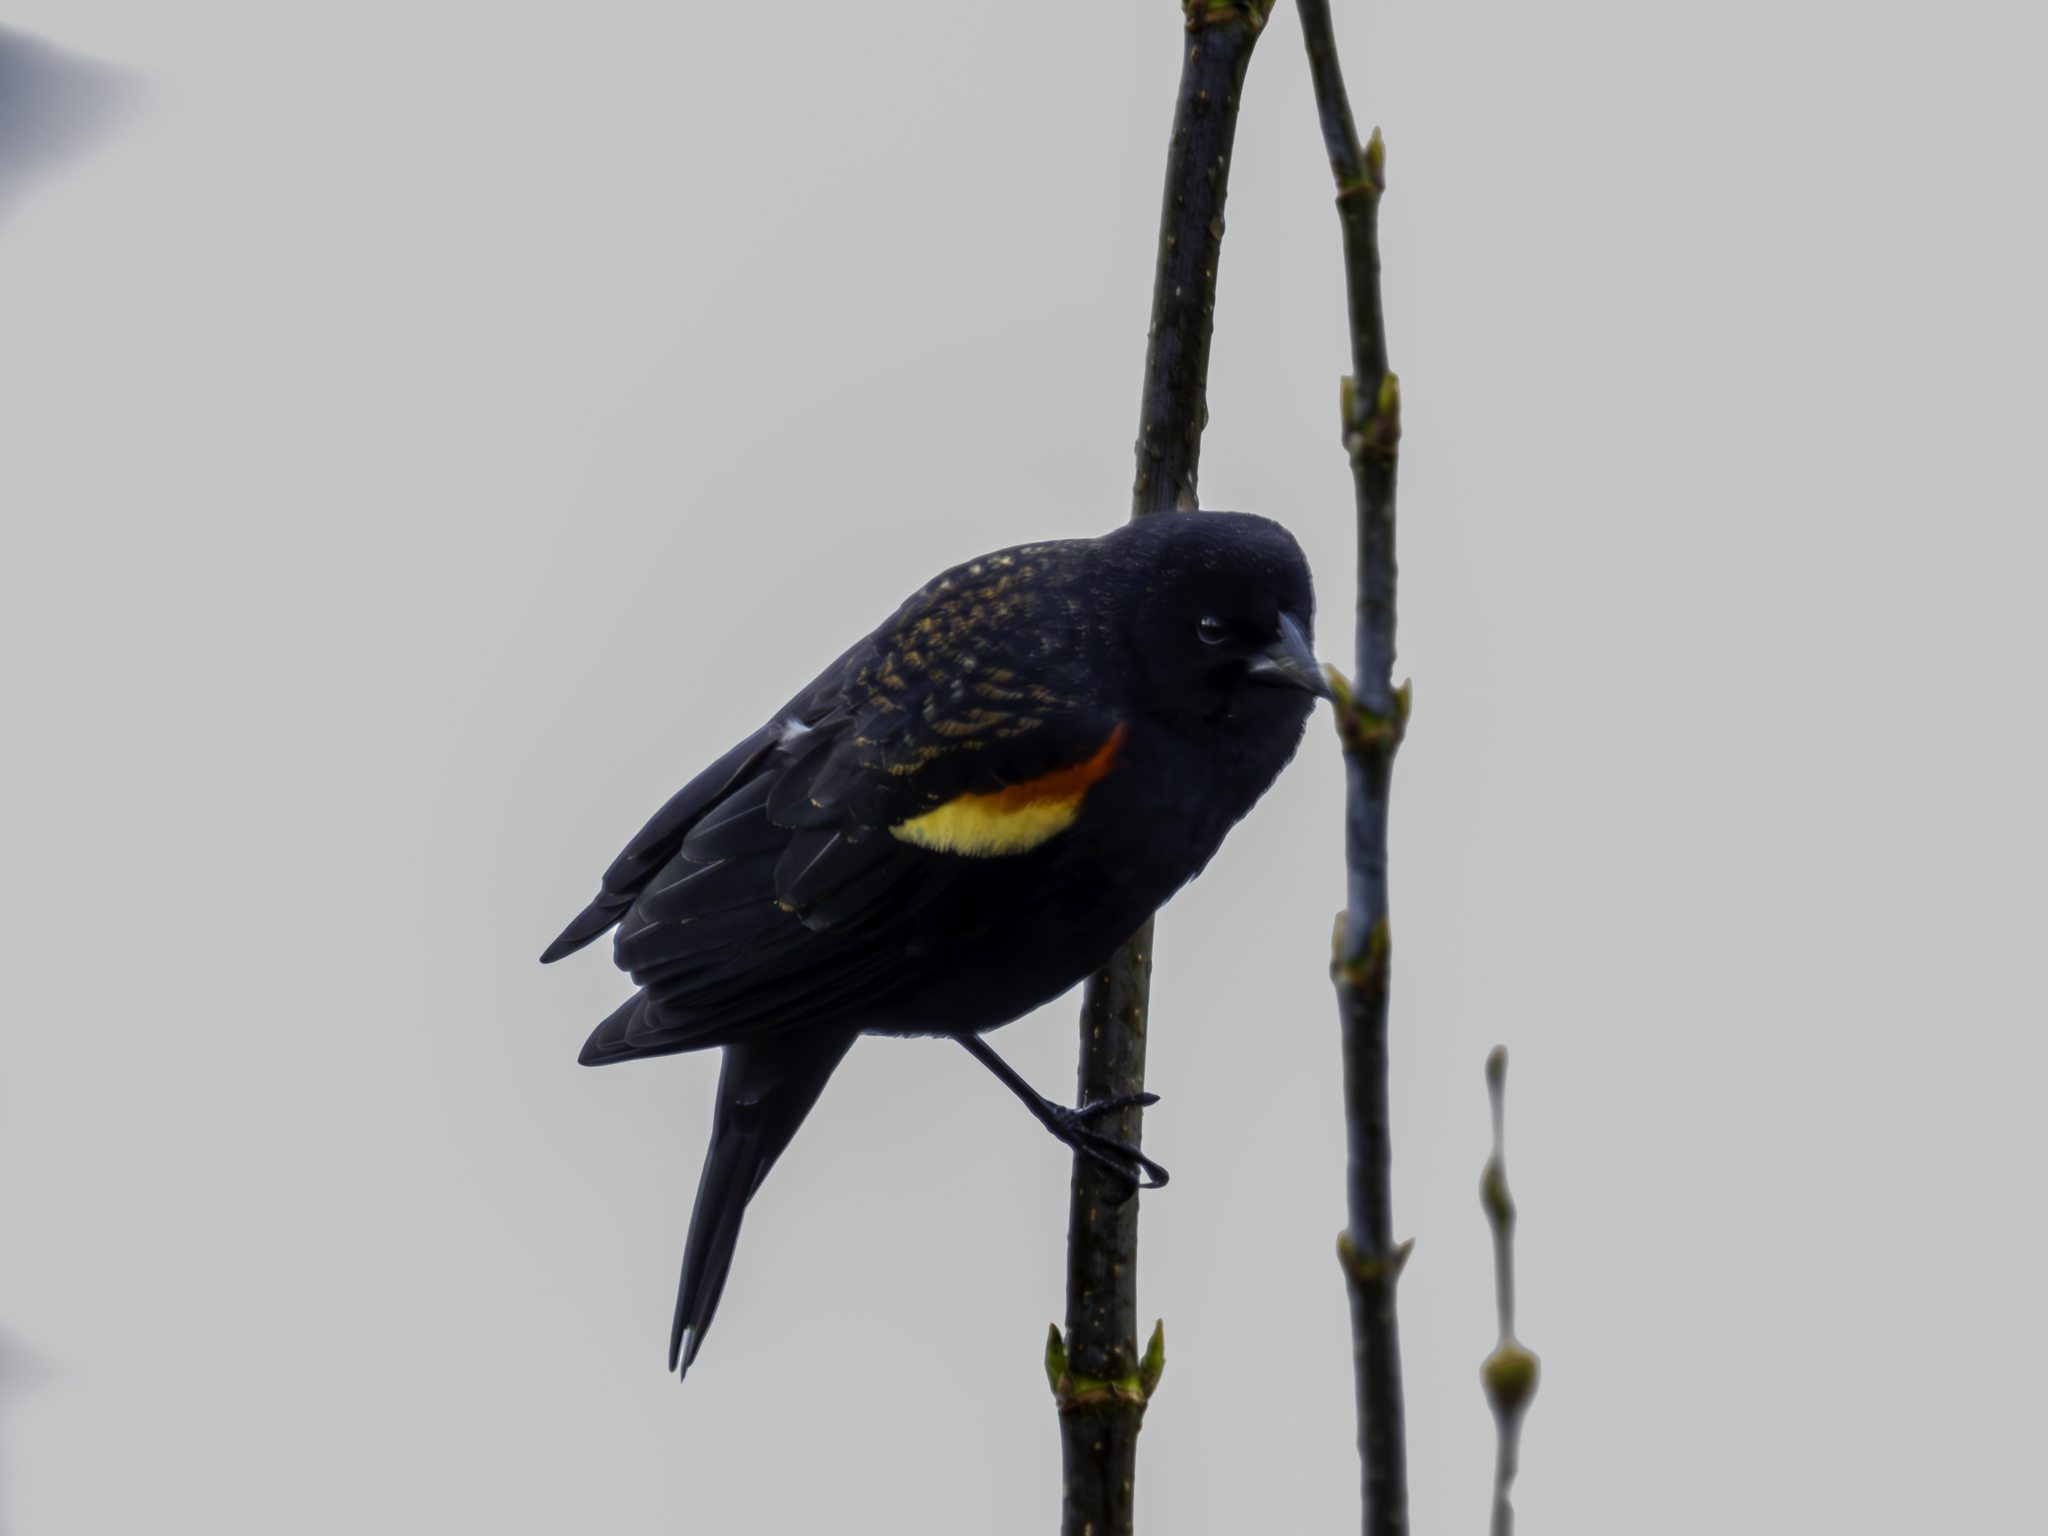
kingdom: Animalia
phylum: Chordata
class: Aves
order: Passeriformes
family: Icteridae
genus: Agelaius
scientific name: Agelaius phoeniceus
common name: Red-winged blackbird
